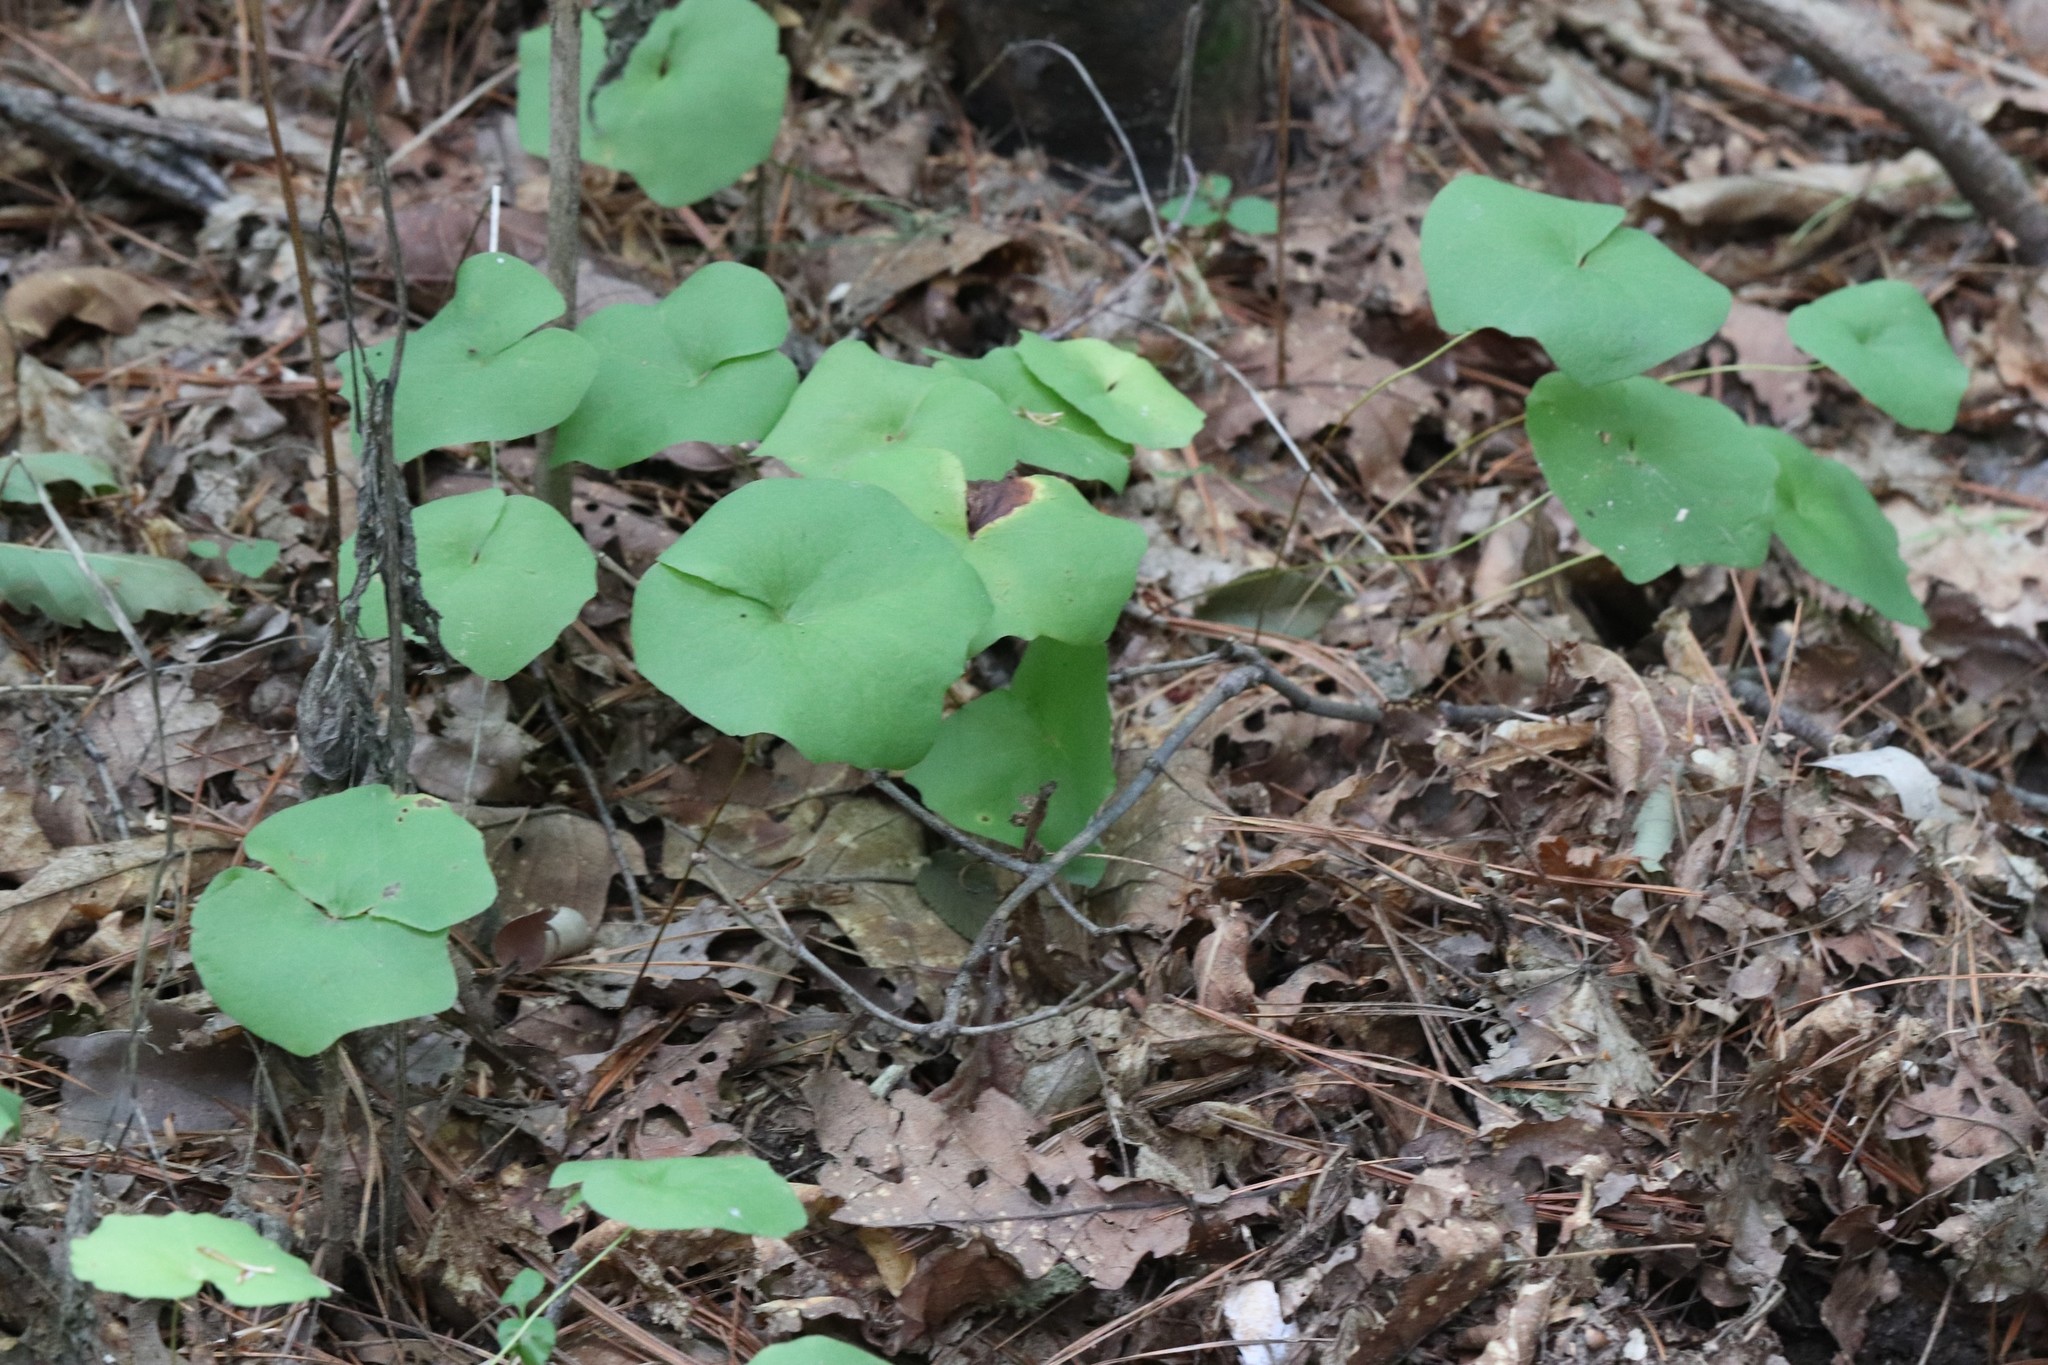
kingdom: Plantae
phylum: Tracheophyta
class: Magnoliopsida
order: Ranunculales
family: Berberidaceae
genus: Plagiorhegma
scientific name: Plagiorhegma dubium
